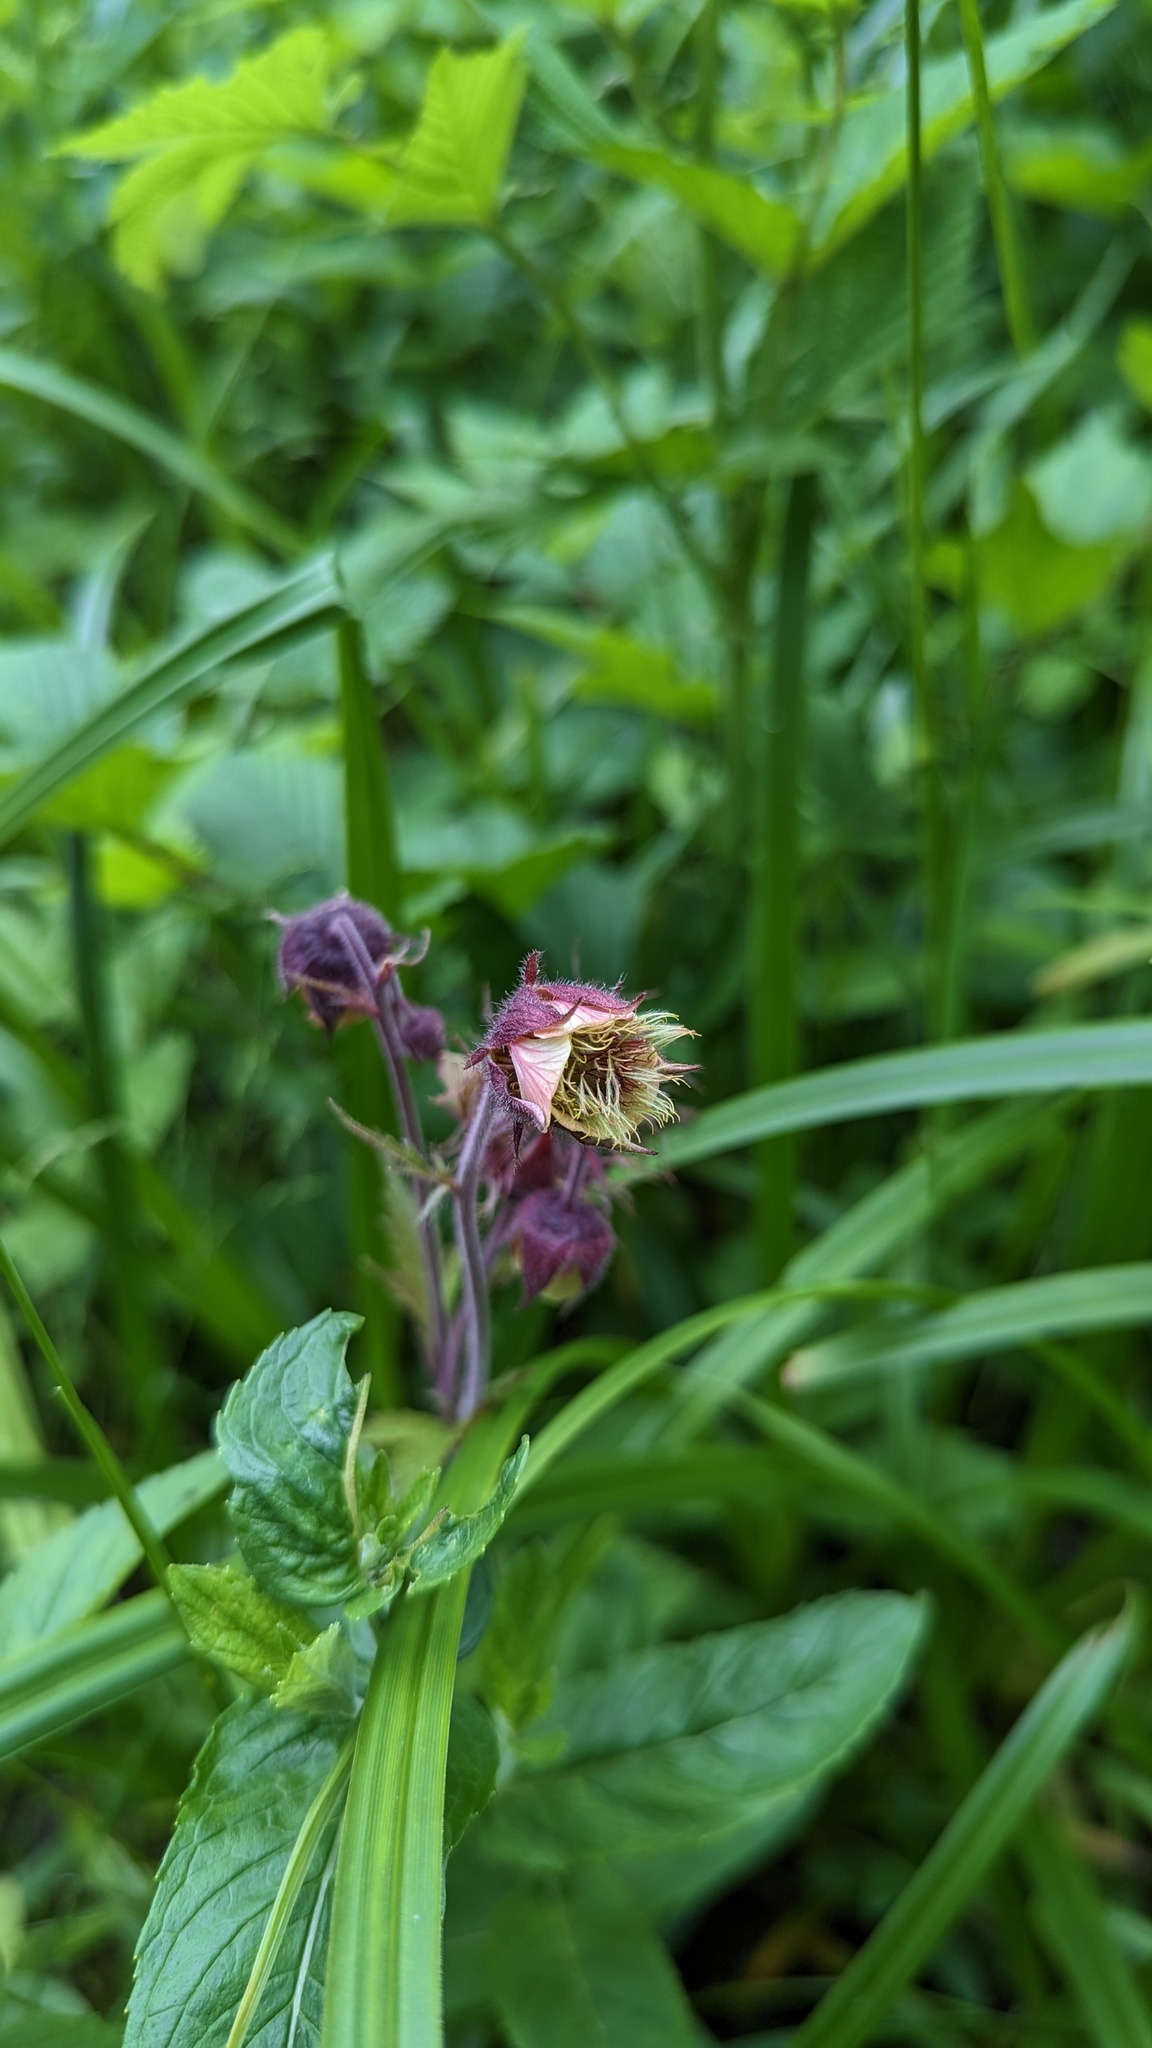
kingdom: Plantae
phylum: Tracheophyta
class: Magnoliopsida
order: Rosales
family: Rosaceae
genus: Geum
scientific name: Geum rivale
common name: Water avens
